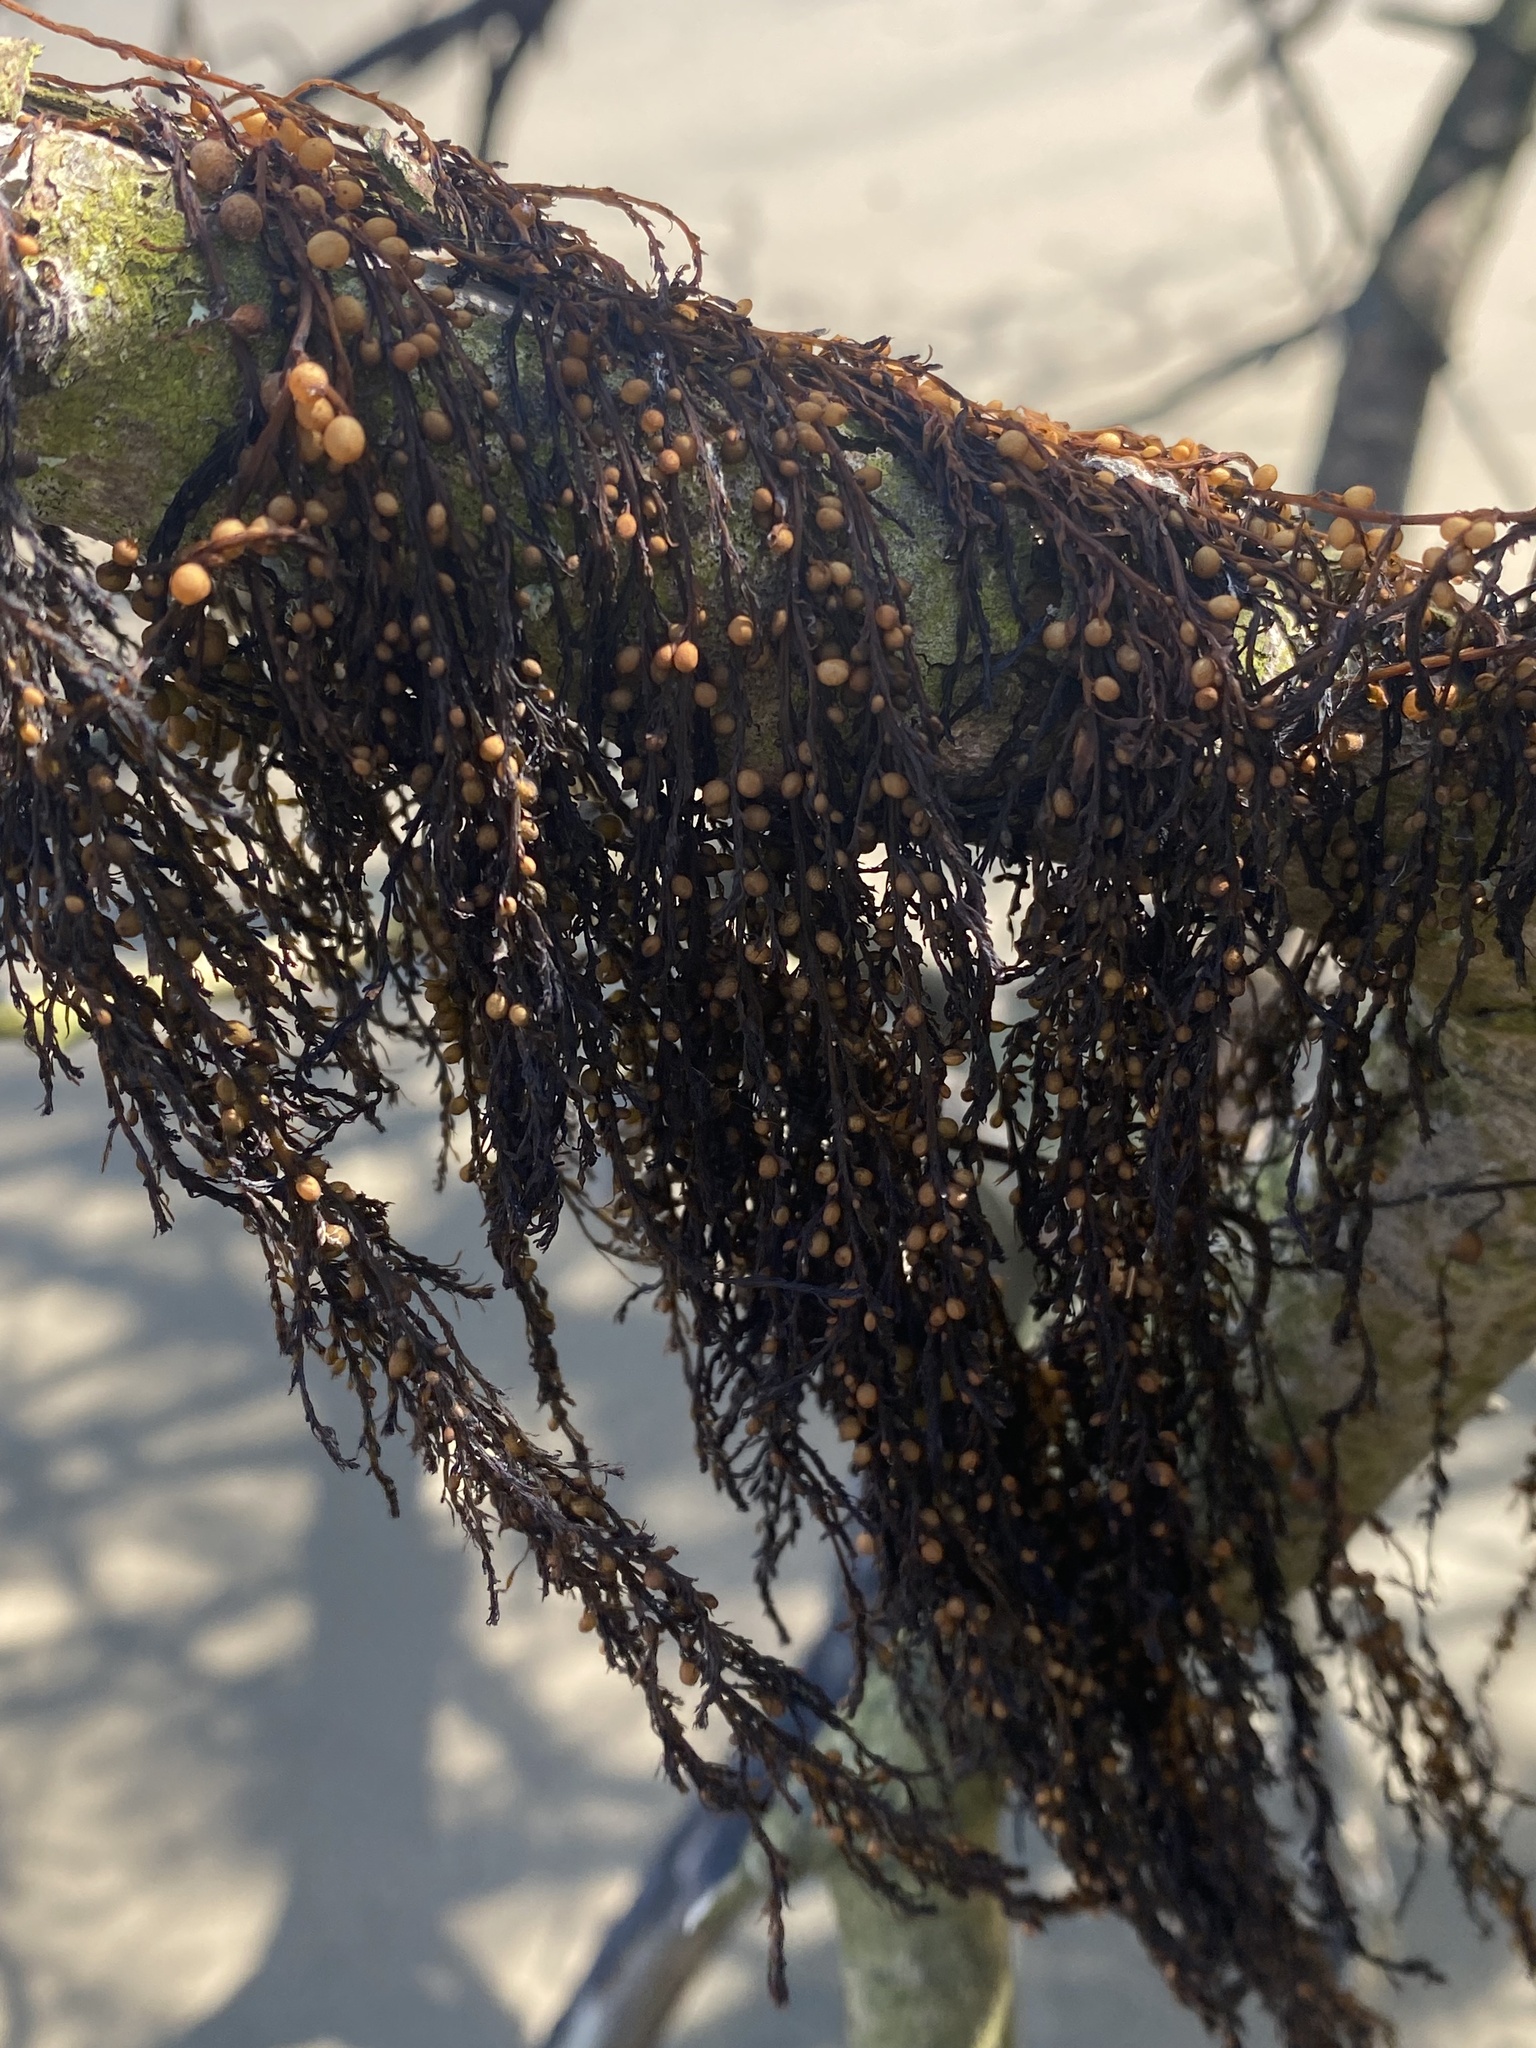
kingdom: Chromista
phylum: Ochrophyta
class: Phaeophyceae
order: Fucales
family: Sargassaceae
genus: Sargassum
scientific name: Sargassum muticum
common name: Japweed
